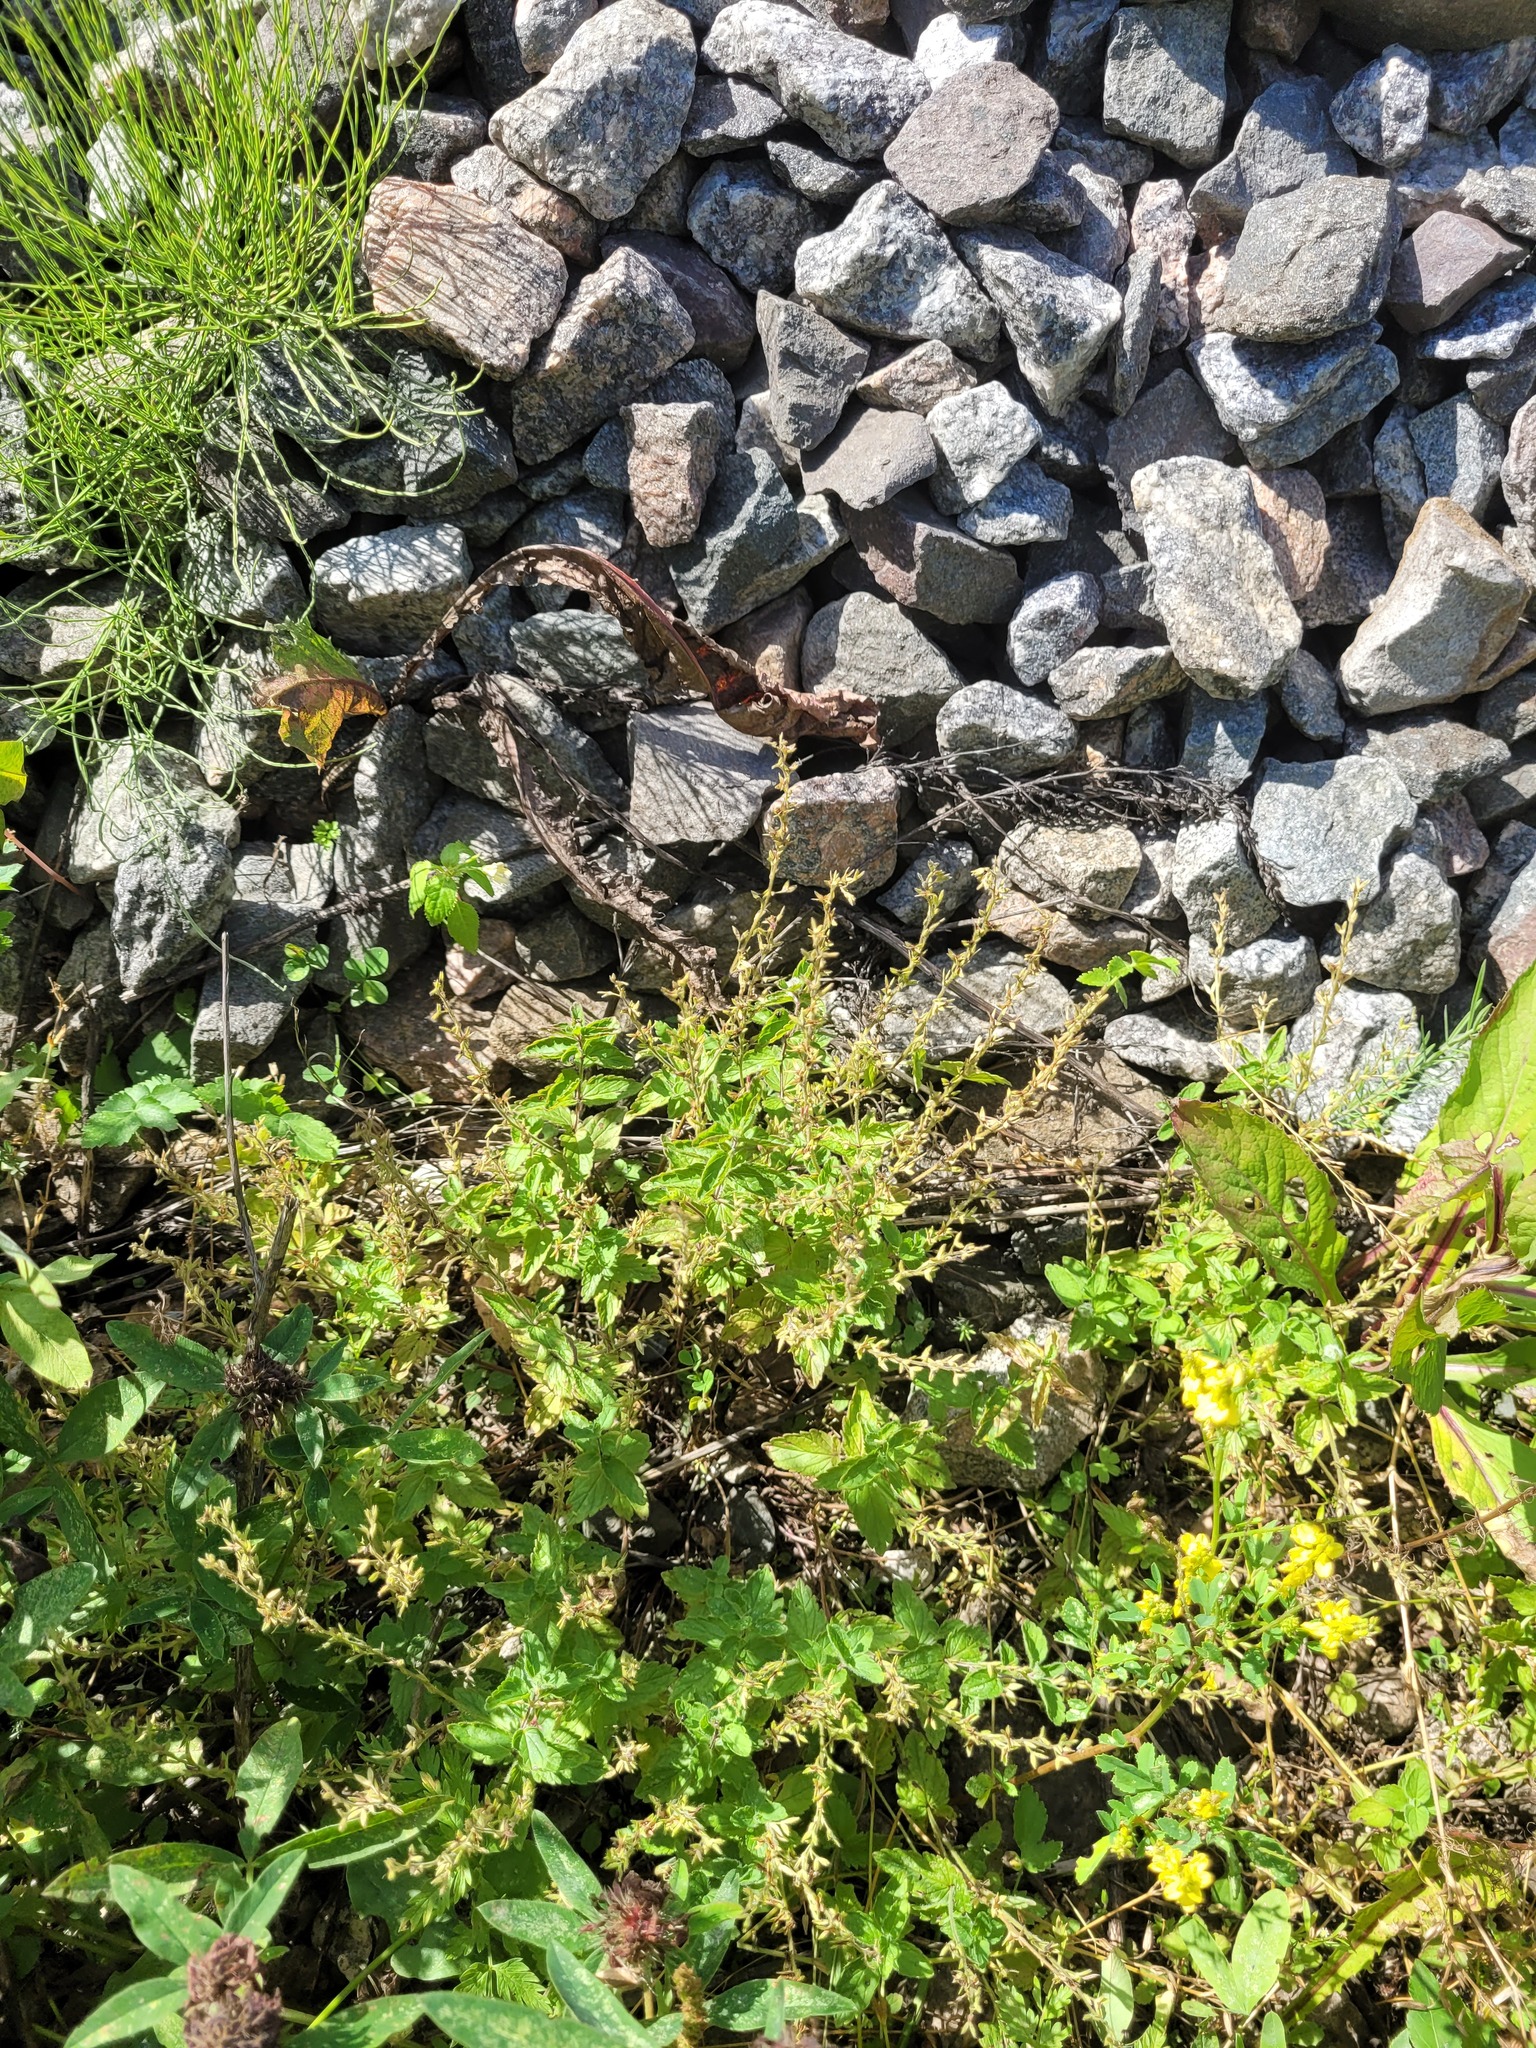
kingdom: Plantae
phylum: Tracheophyta
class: Magnoliopsida
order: Lamiales
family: Plantaginaceae
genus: Veronica
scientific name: Veronica chamaedrys
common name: Germander speedwell
